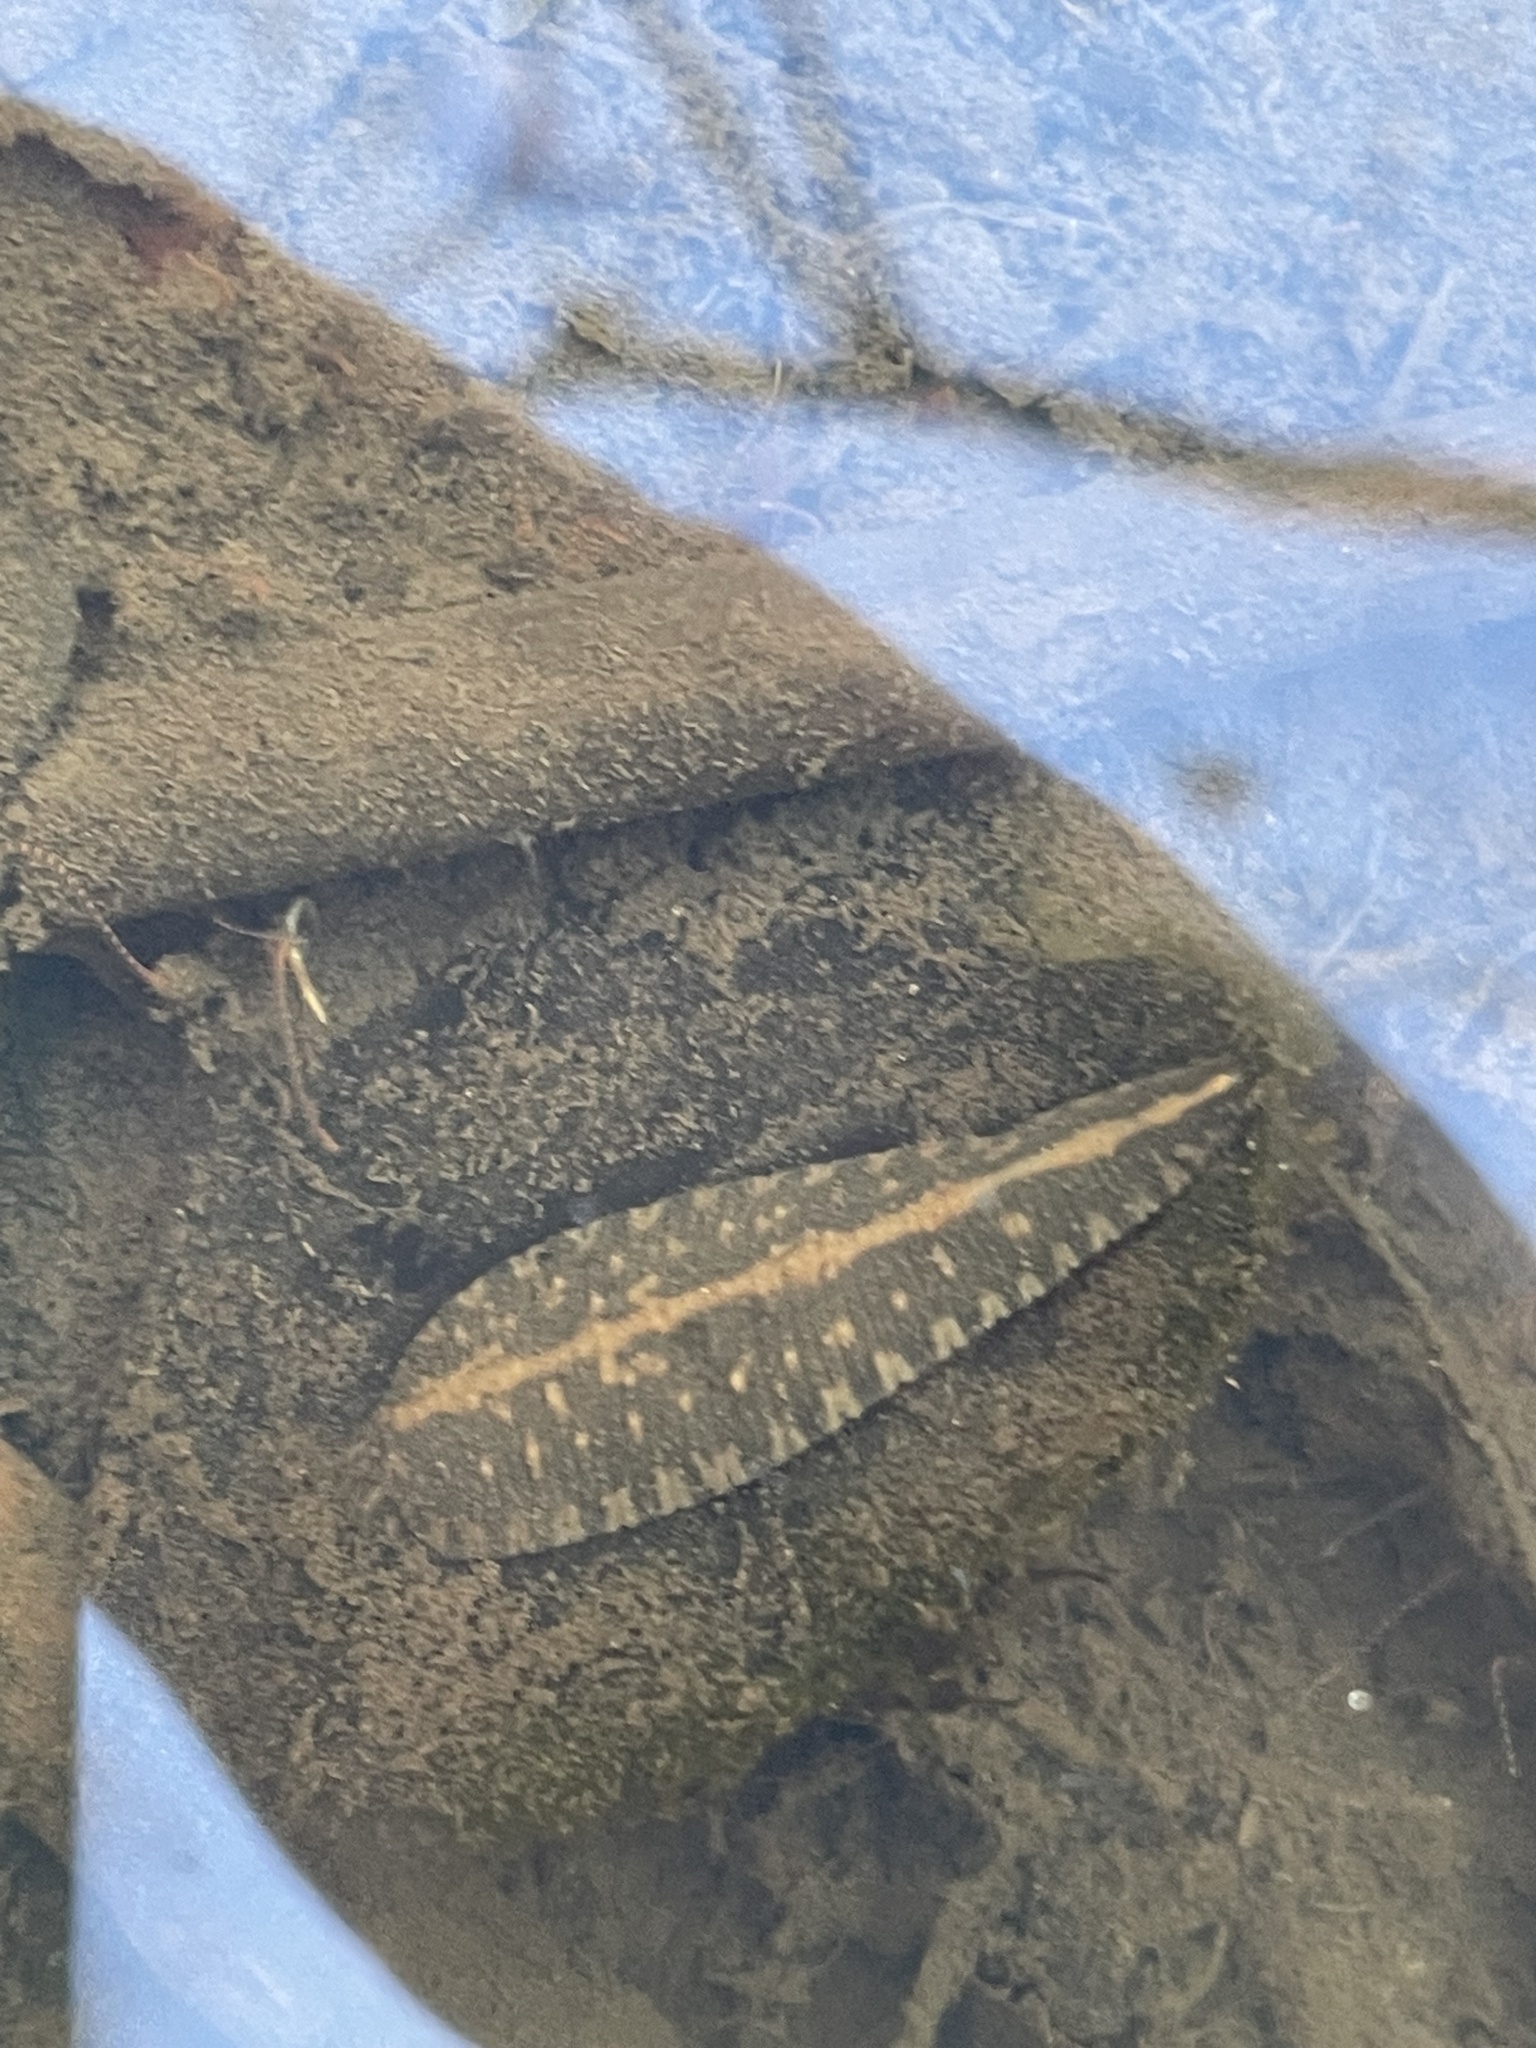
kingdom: Animalia
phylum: Annelida
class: Clitellata
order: Rhynchobdellida
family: Glossiphoniidae
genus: Placobdella
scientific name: Placobdella parasitica
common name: Smooth turtle leech
